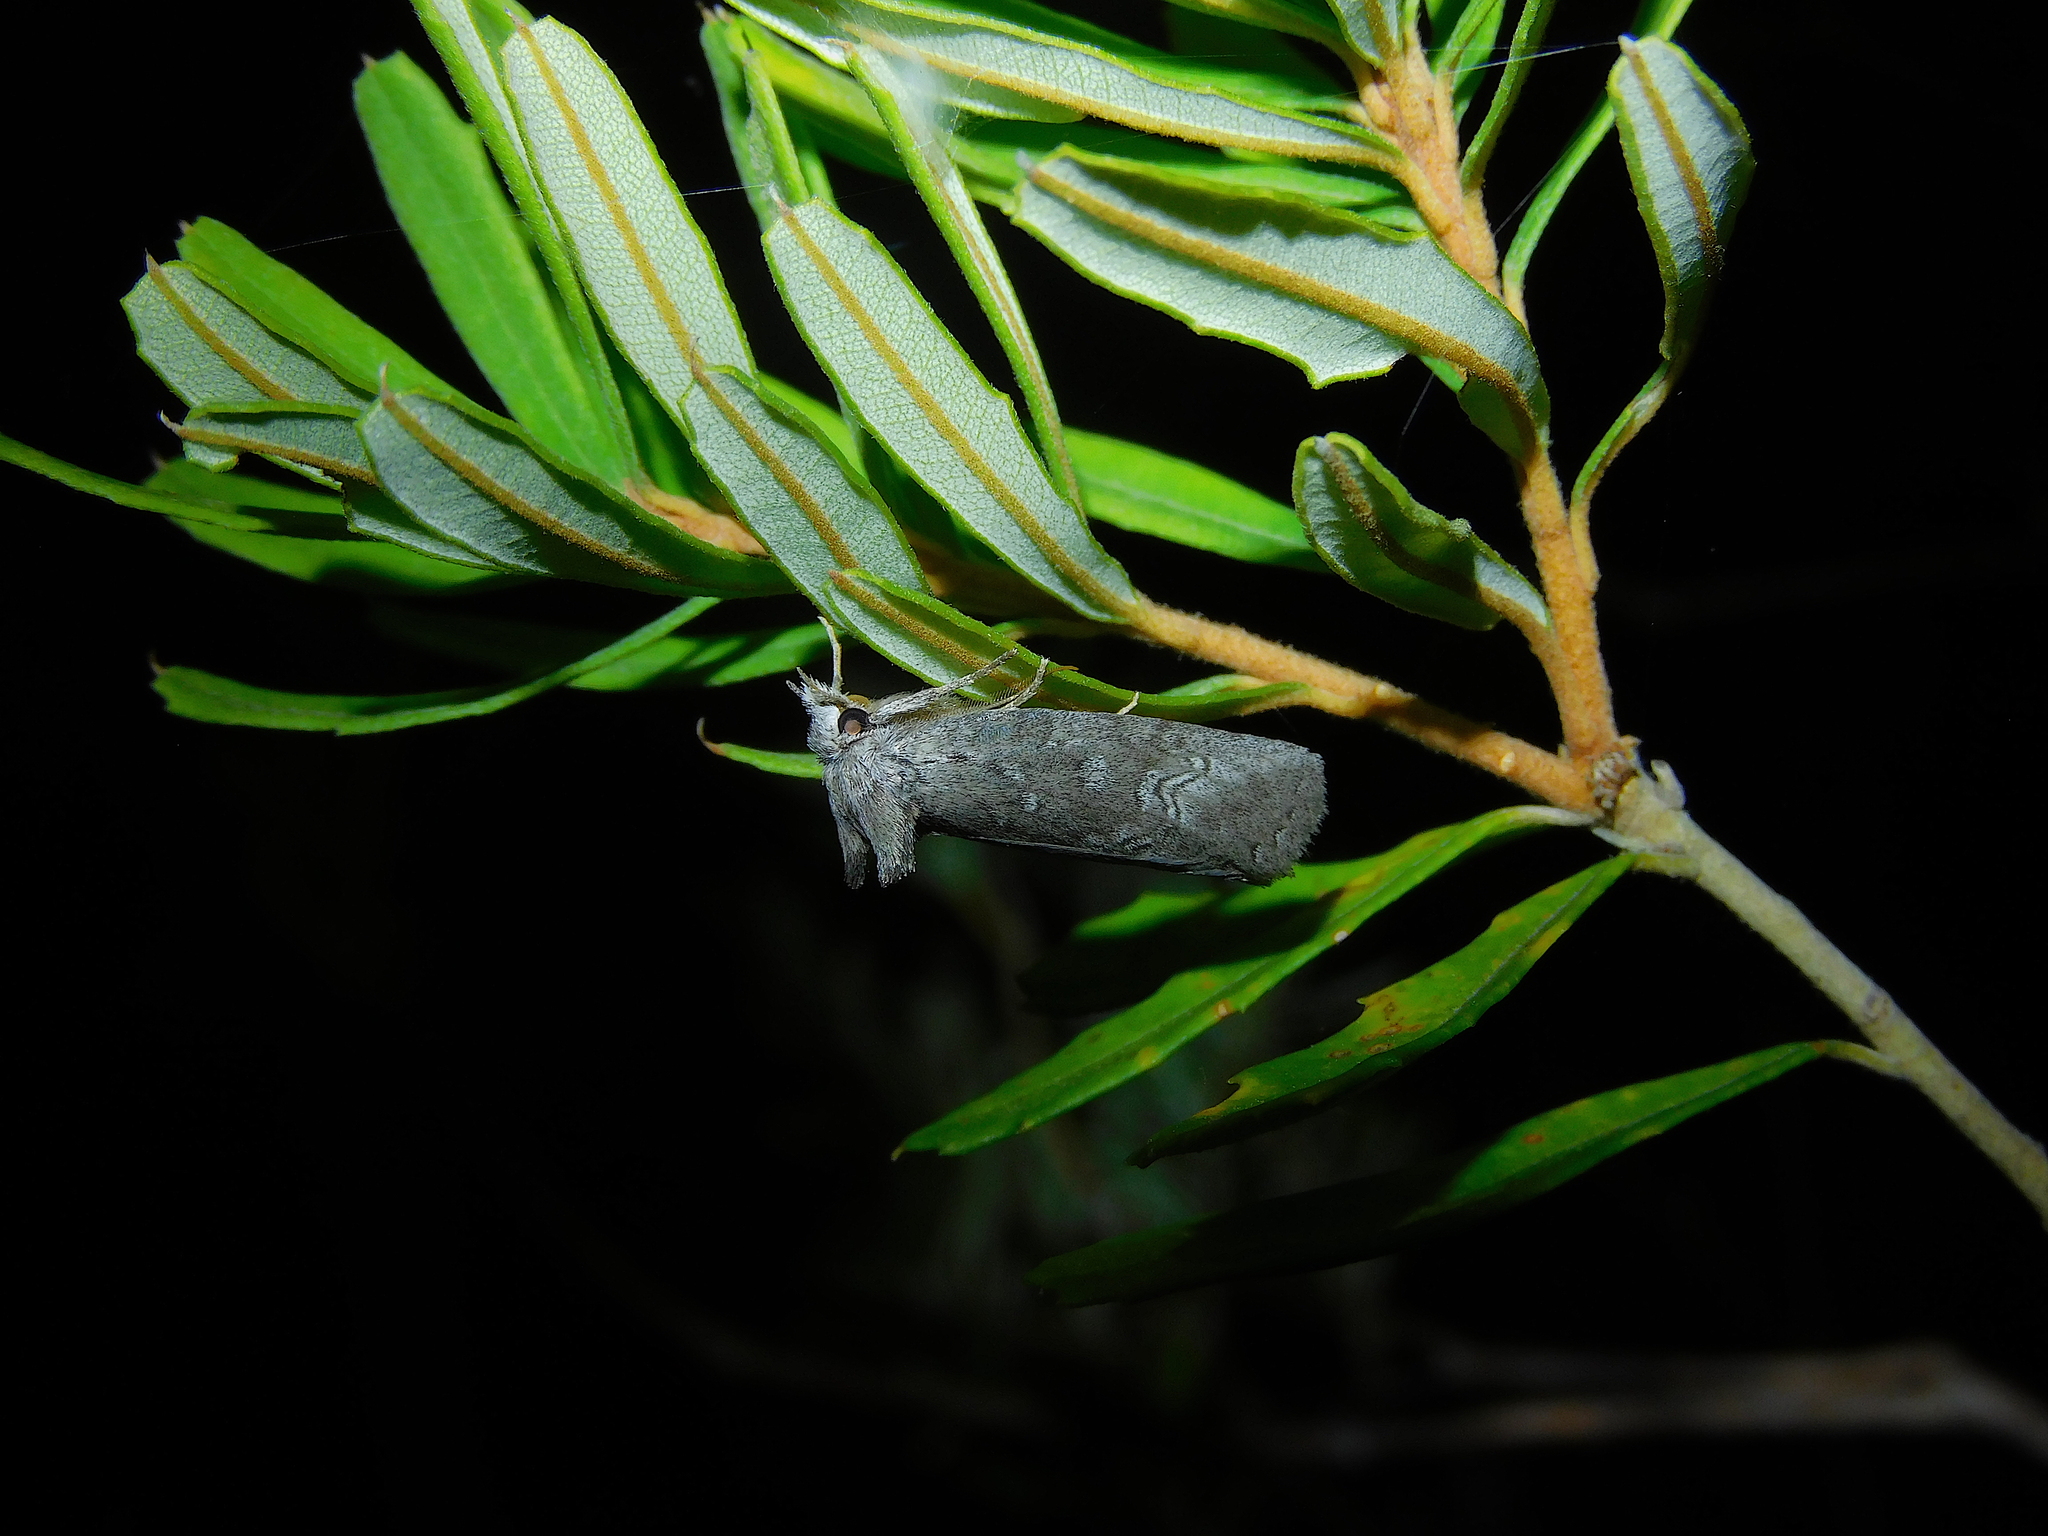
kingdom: Animalia
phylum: Arthropoda
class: Insecta
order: Lepidoptera
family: Notodontidae
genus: Hobartina
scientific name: Hobartina amblyiodes
